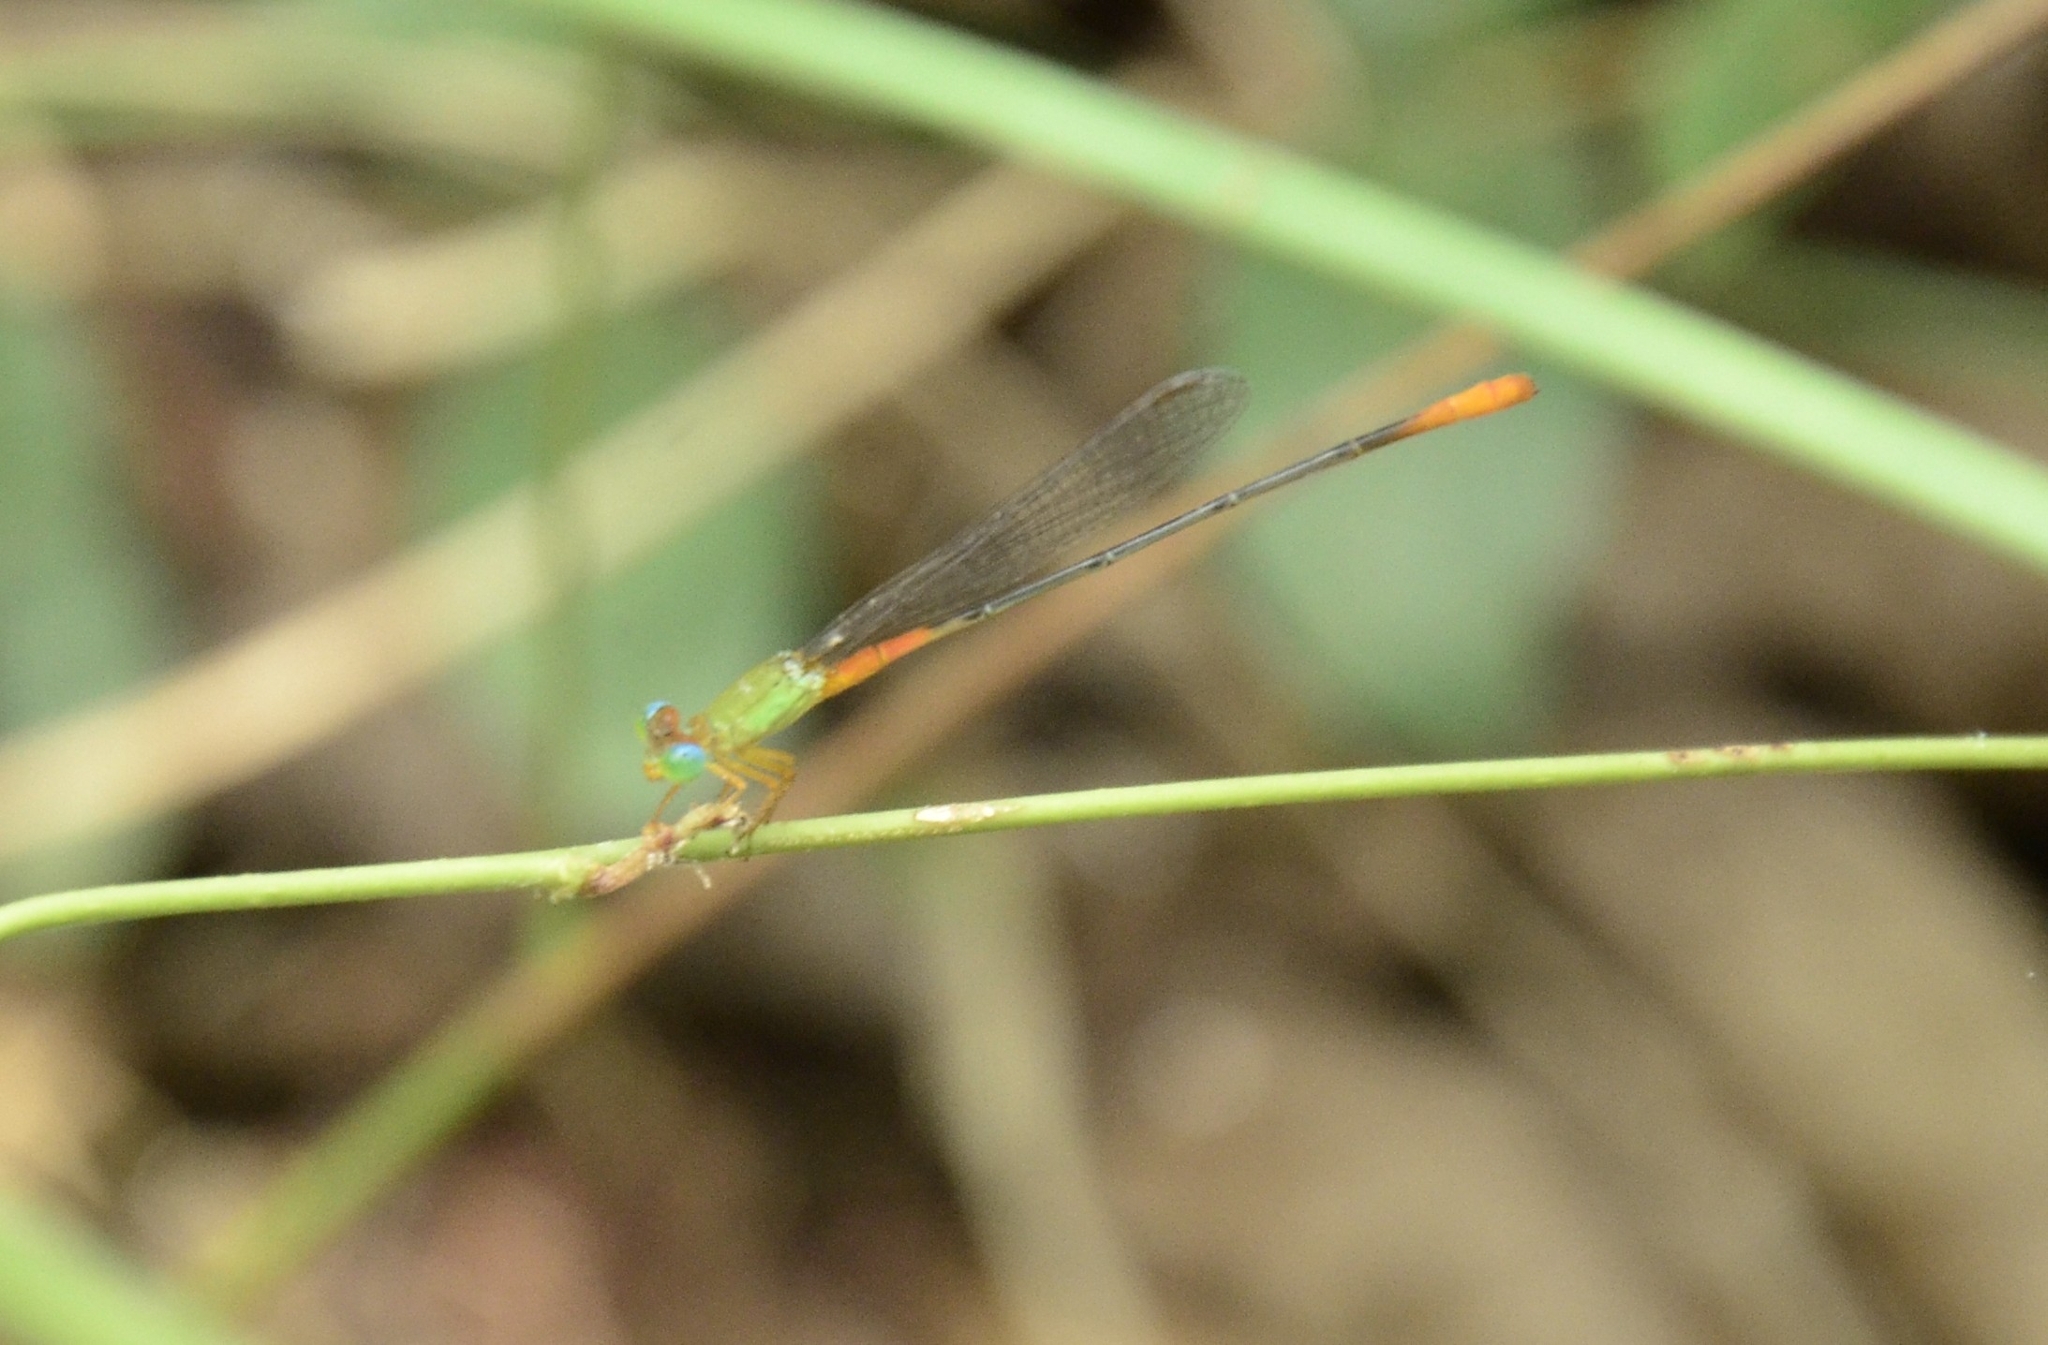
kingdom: Animalia
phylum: Arthropoda
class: Insecta
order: Odonata
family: Coenagrionidae
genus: Ceriagrion
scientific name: Ceriagrion cerinorubellum
